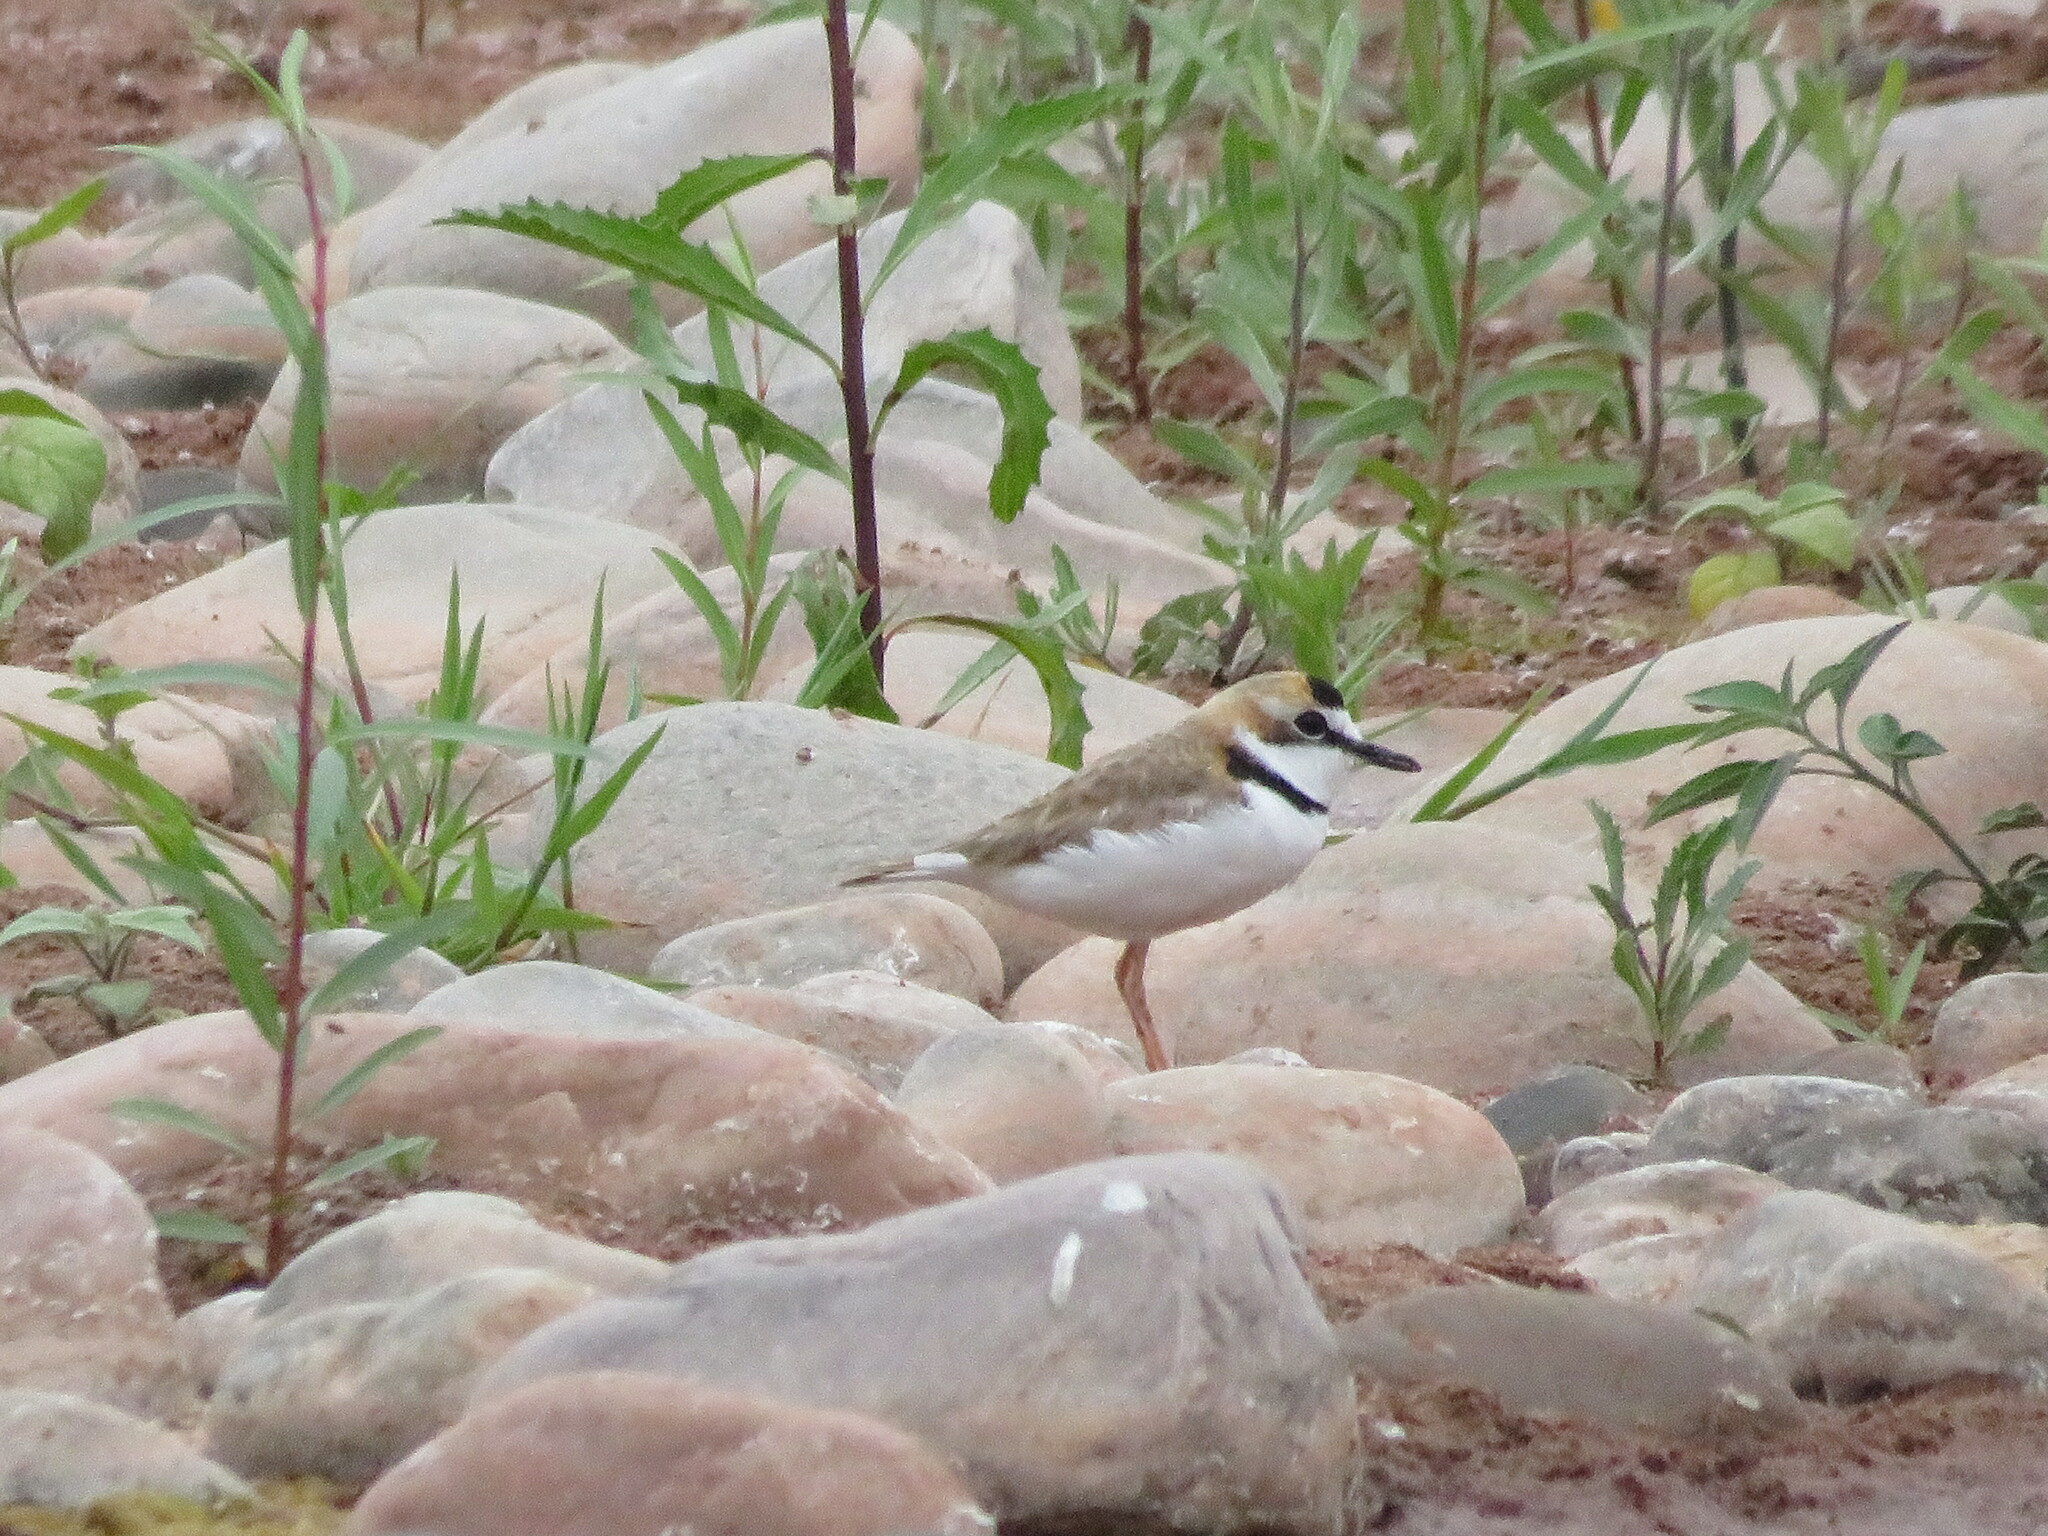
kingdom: Animalia
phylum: Chordata
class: Aves
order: Charadriiformes
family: Charadriidae
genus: Anarhynchus
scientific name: Anarhynchus
